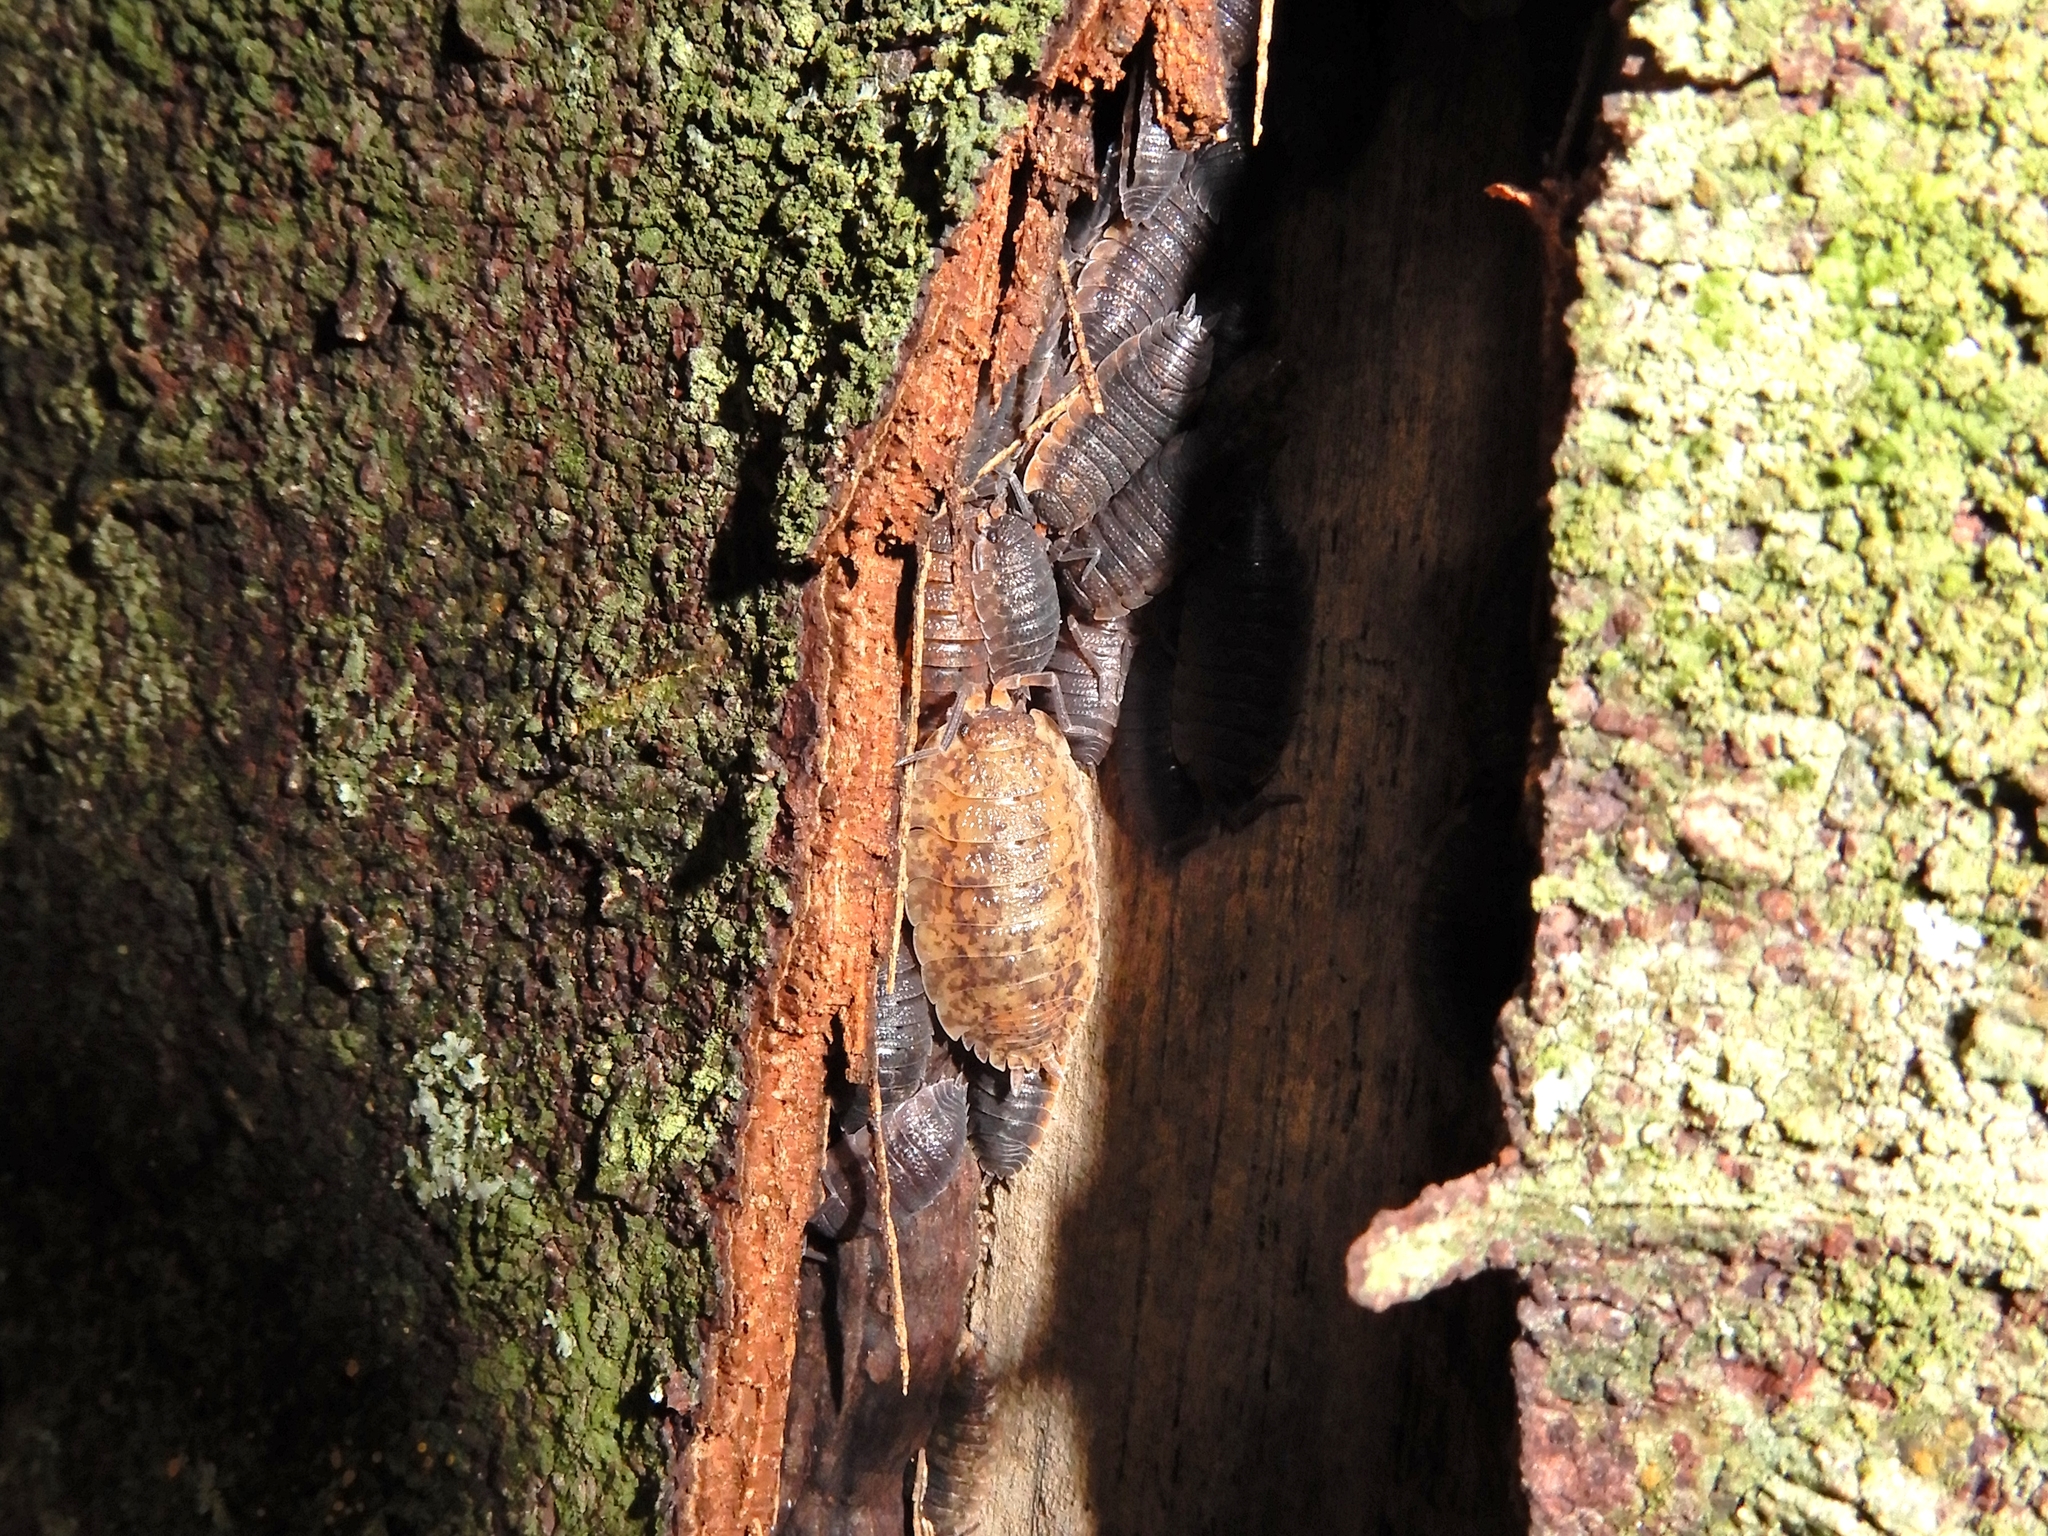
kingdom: Animalia
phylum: Arthropoda
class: Malacostraca
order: Isopoda
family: Porcellionidae
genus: Porcellio
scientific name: Porcellio scaber
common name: Common rough woodlouse
